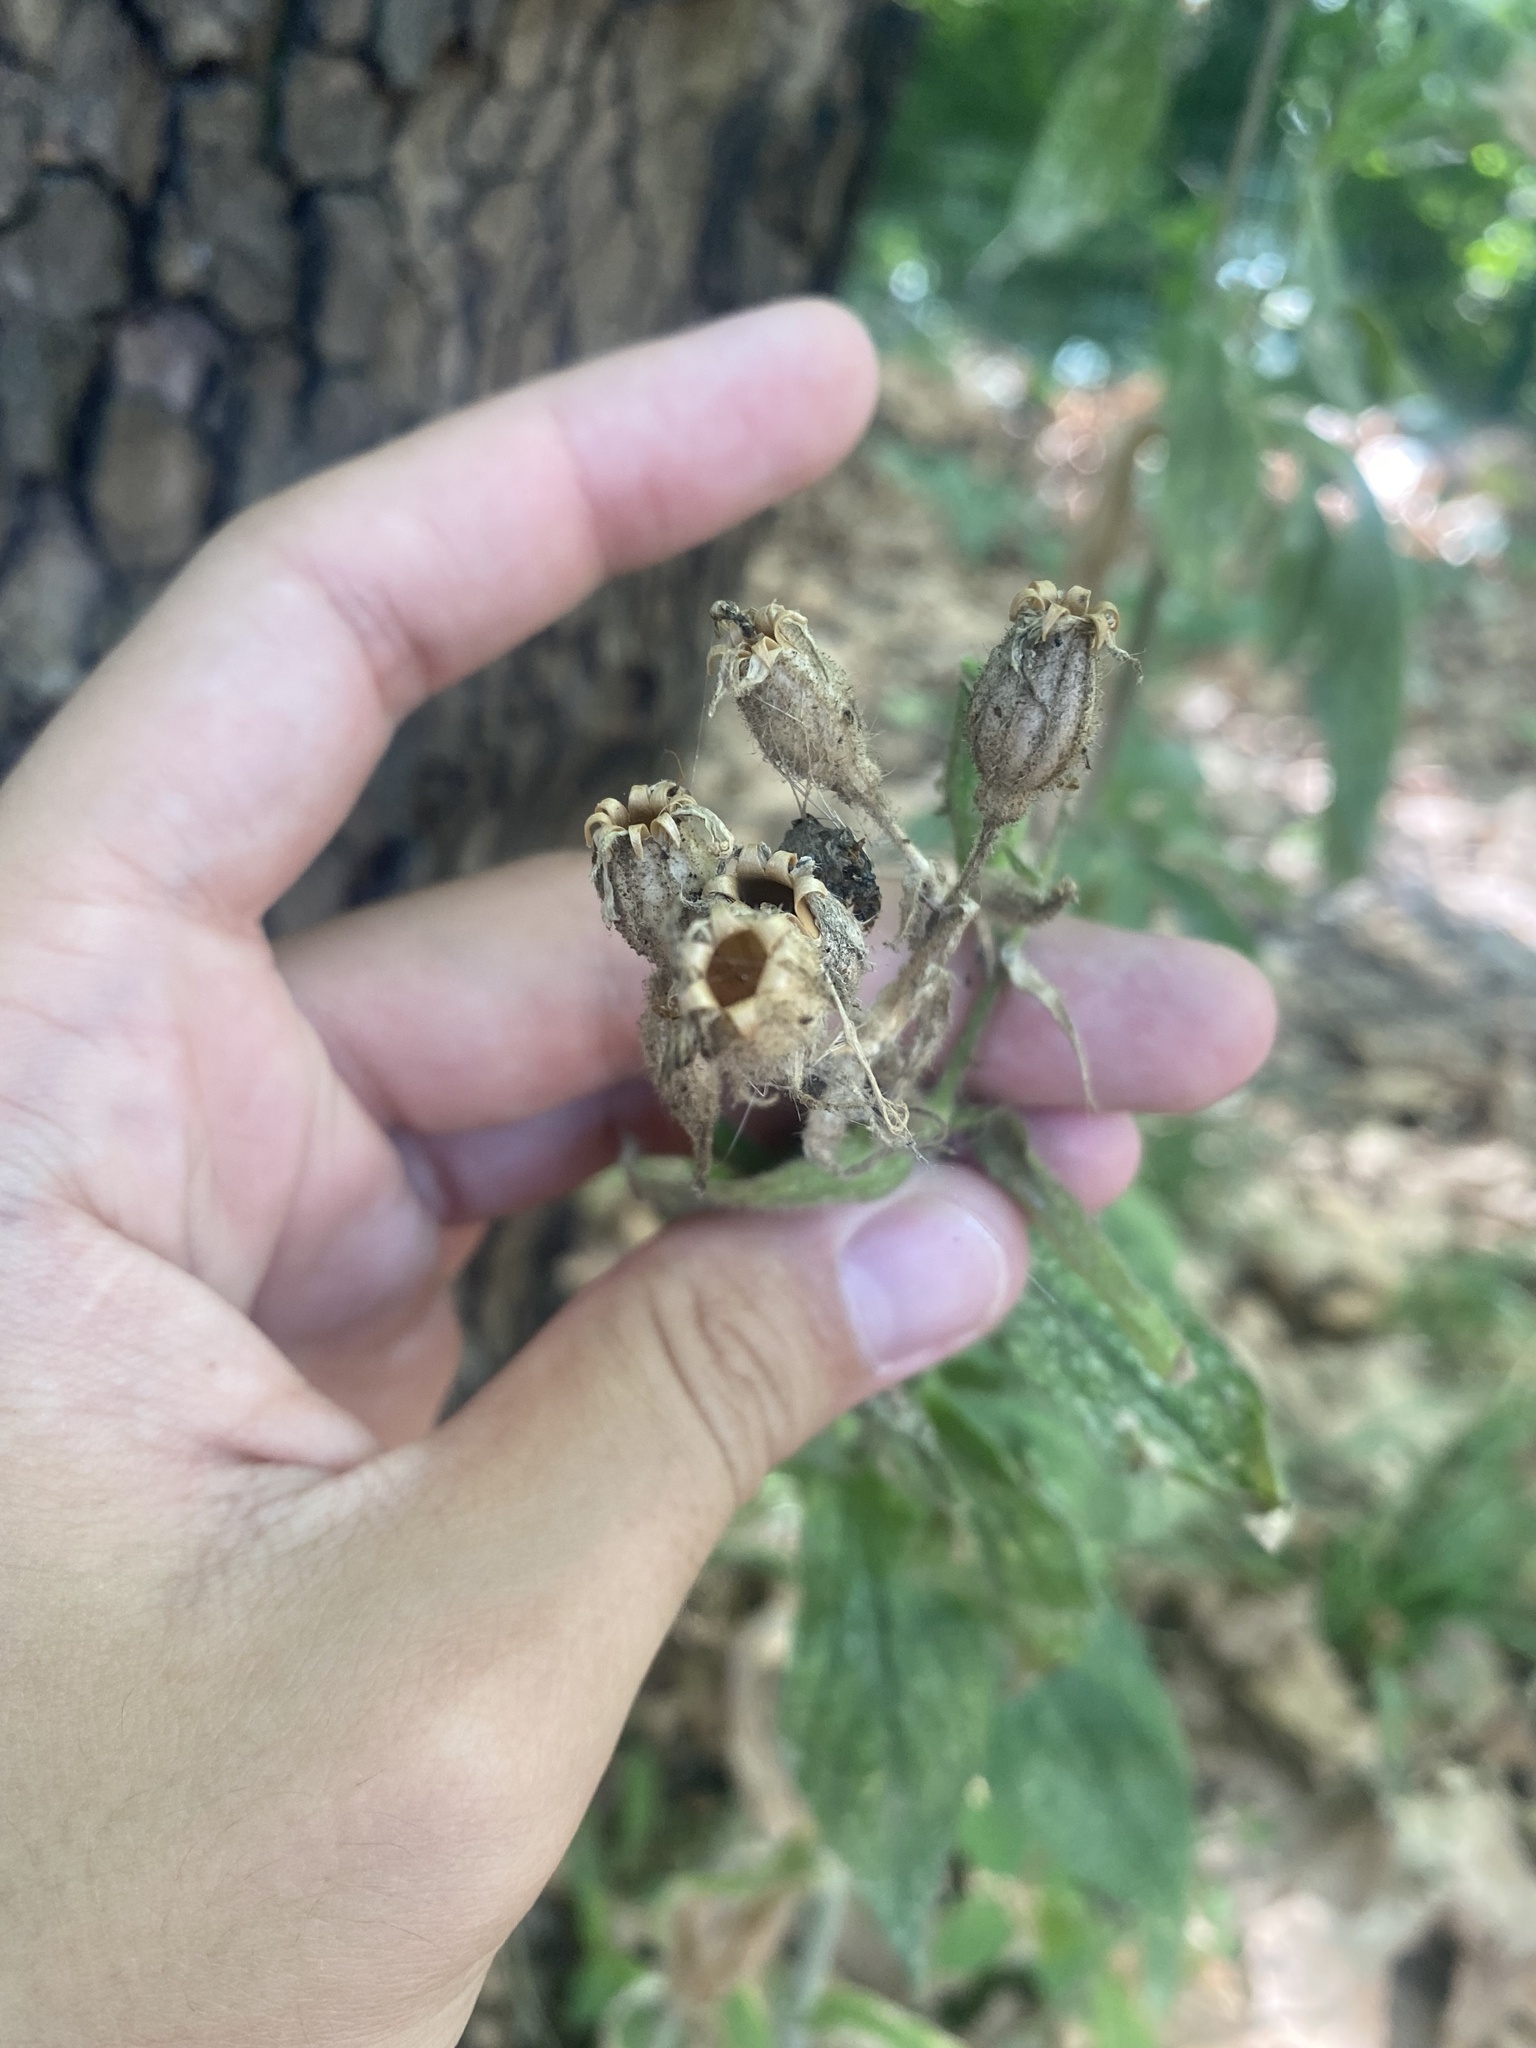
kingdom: Plantae
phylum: Tracheophyta
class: Magnoliopsida
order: Caryophyllales
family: Caryophyllaceae
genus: Silene
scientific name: Silene noctiflora
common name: Night-flowering catchfly
